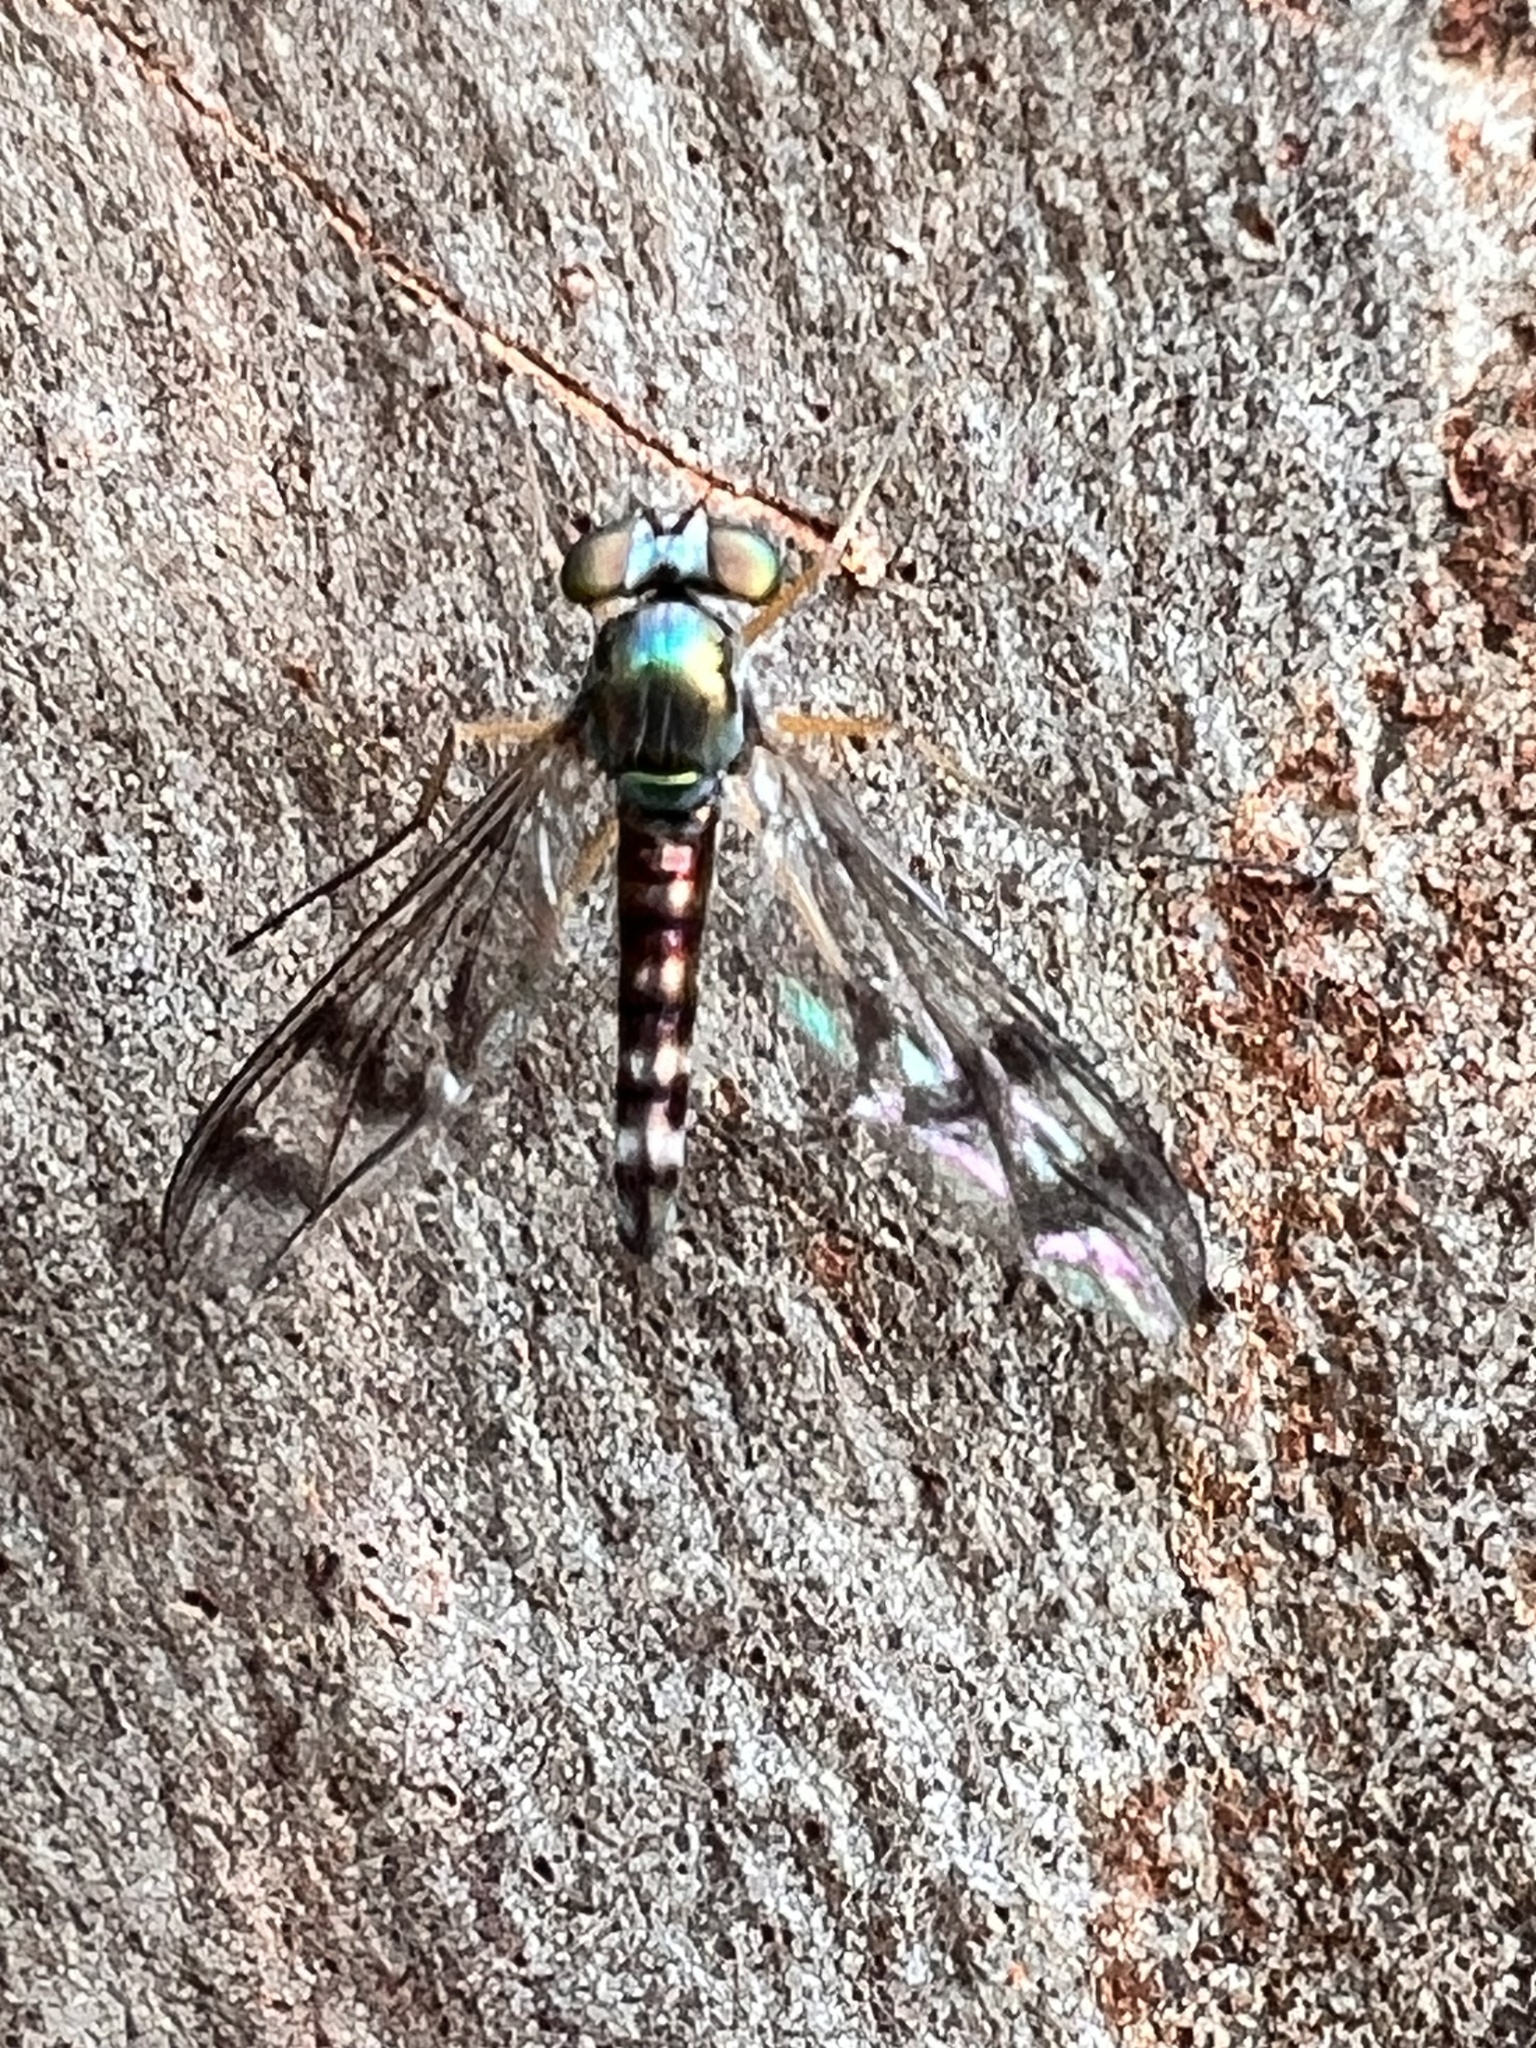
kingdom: Animalia
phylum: Arthropoda
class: Insecta
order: Diptera
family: Dolichopodidae
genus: Heteropsilopus
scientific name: Heteropsilopus squamifer
